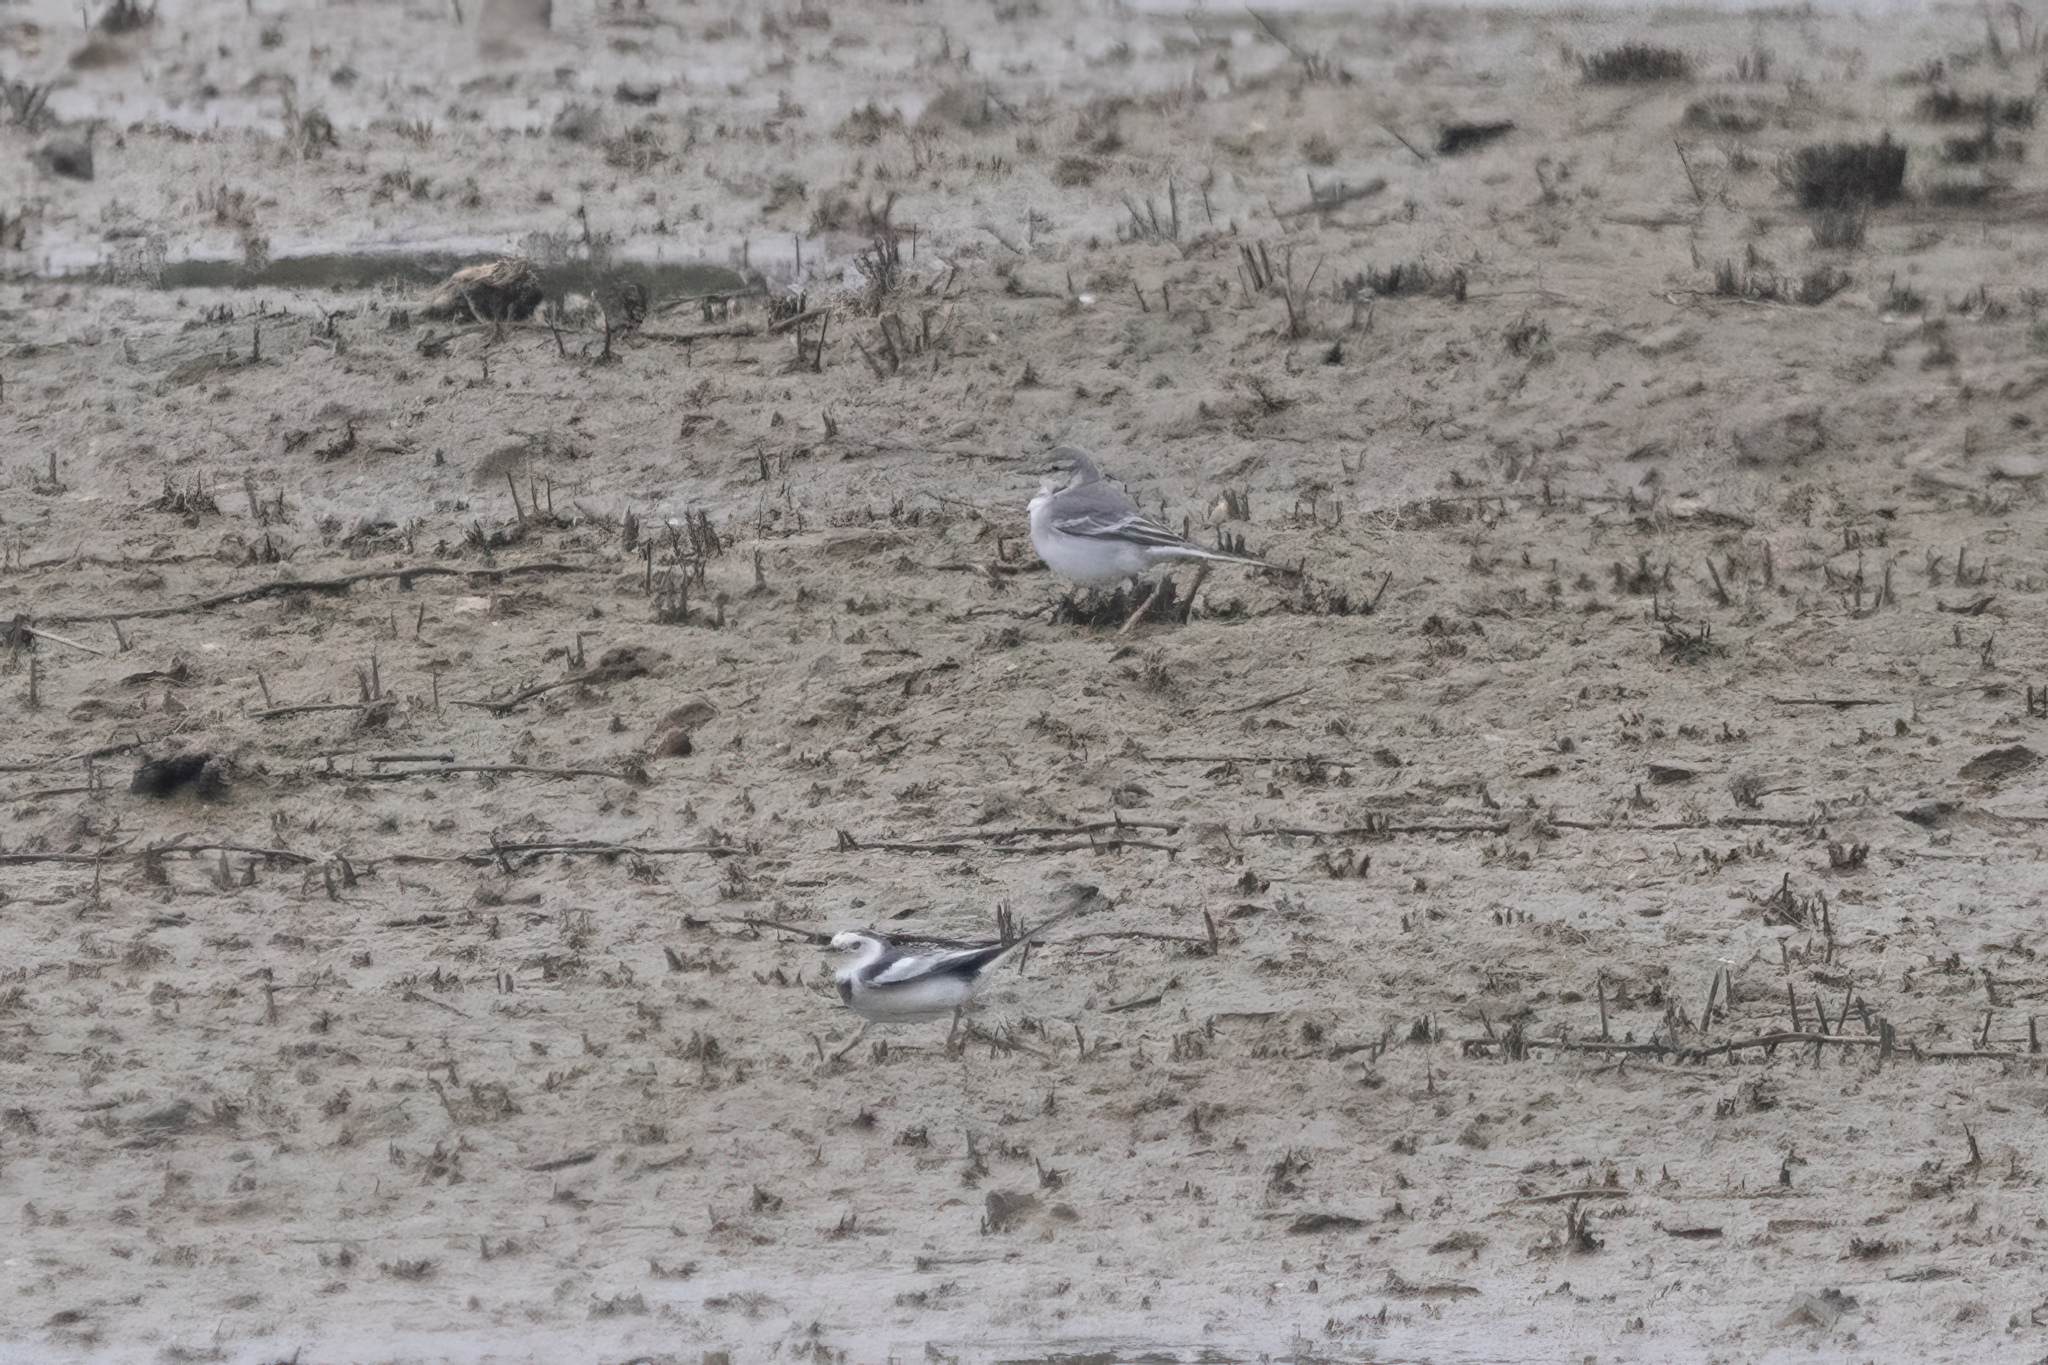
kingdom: Animalia
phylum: Chordata
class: Aves
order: Passeriformes
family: Motacillidae
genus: Motacilla
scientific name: Motacilla alba
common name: White wagtail
